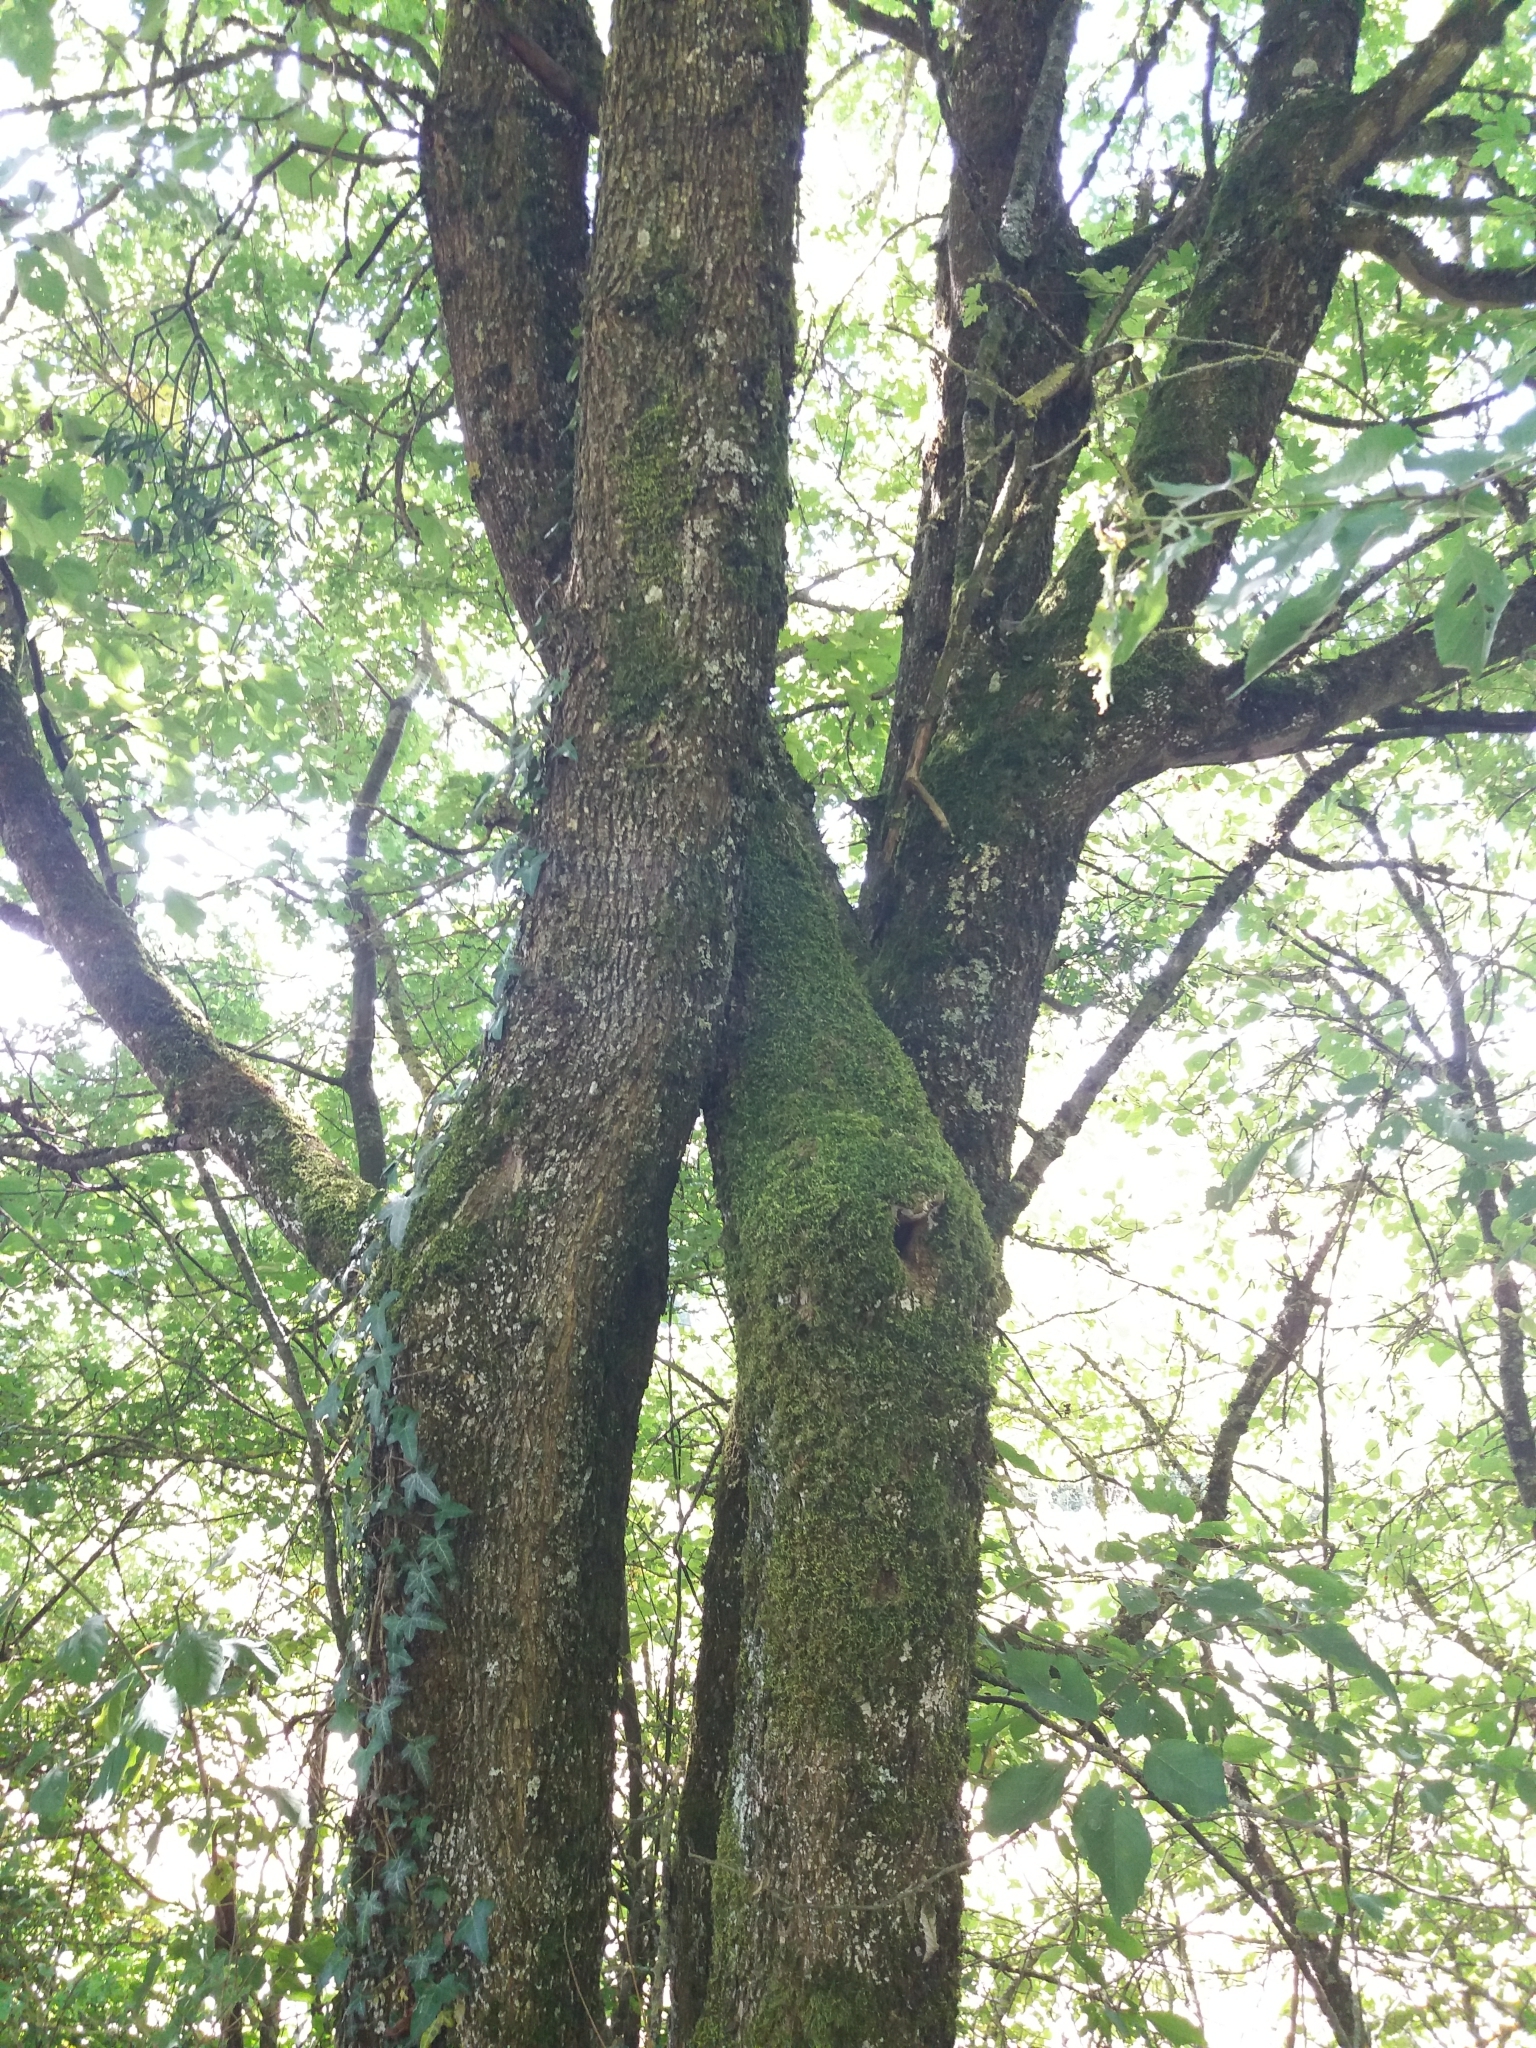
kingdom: Plantae
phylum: Tracheophyta
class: Magnoliopsida
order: Sapindales
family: Sapindaceae
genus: Acer
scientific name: Acer campestre
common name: Field maple
